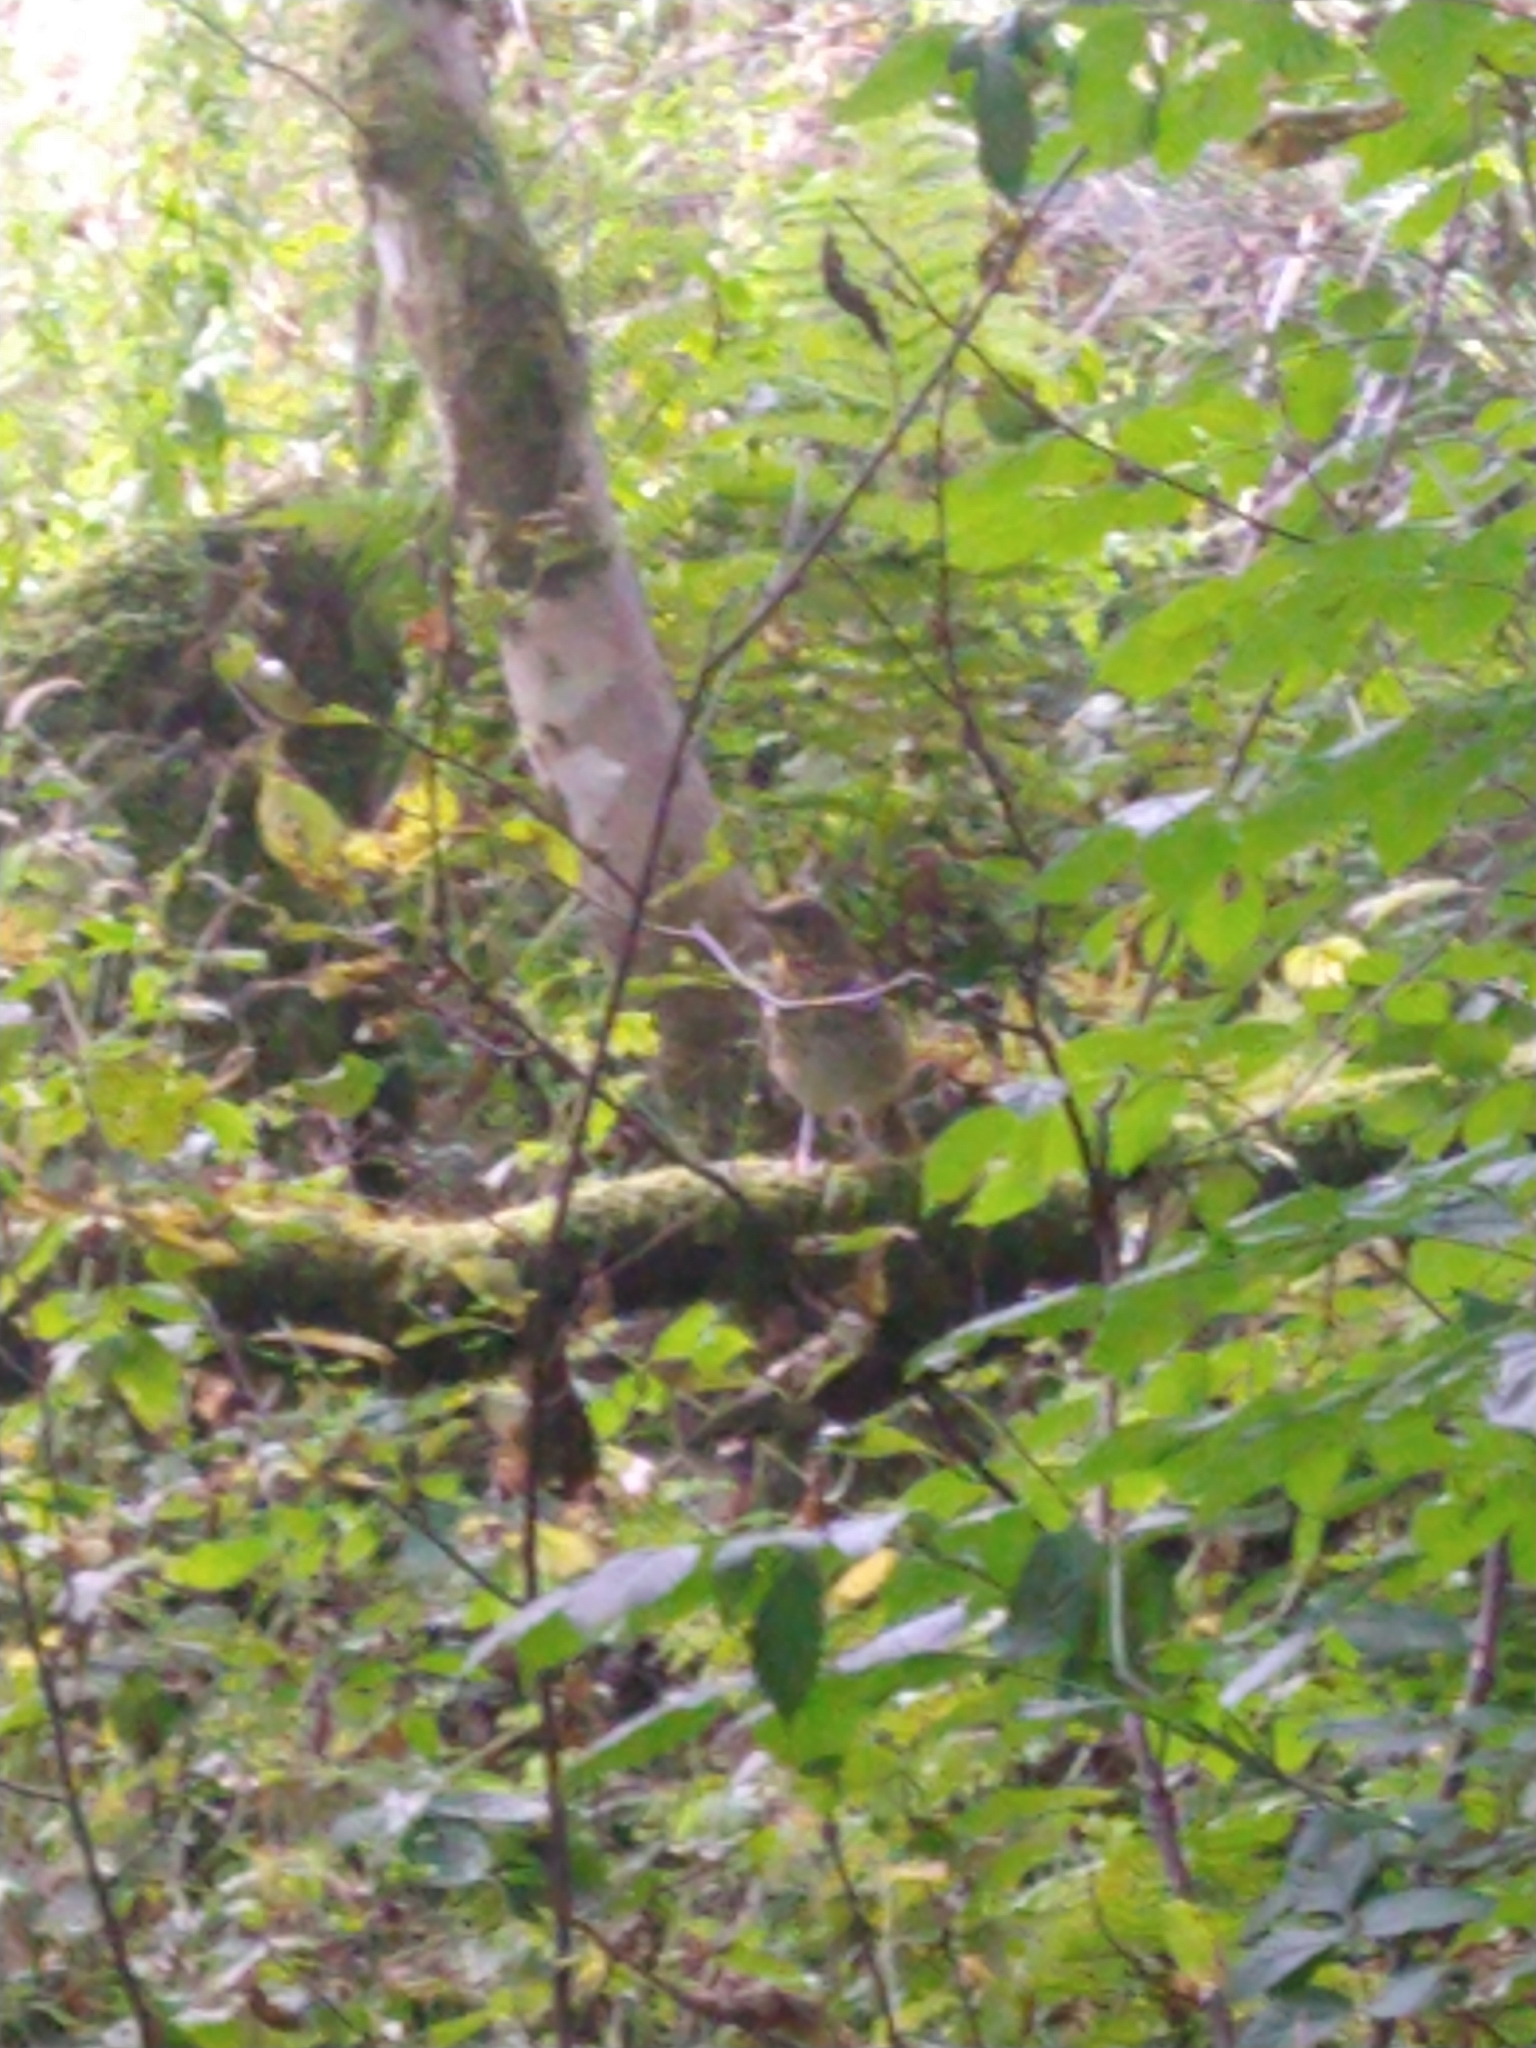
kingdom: Animalia
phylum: Chordata
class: Aves
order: Passeriformes
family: Turdidae
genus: Turdus
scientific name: Turdus philomelos
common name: Song thrush
